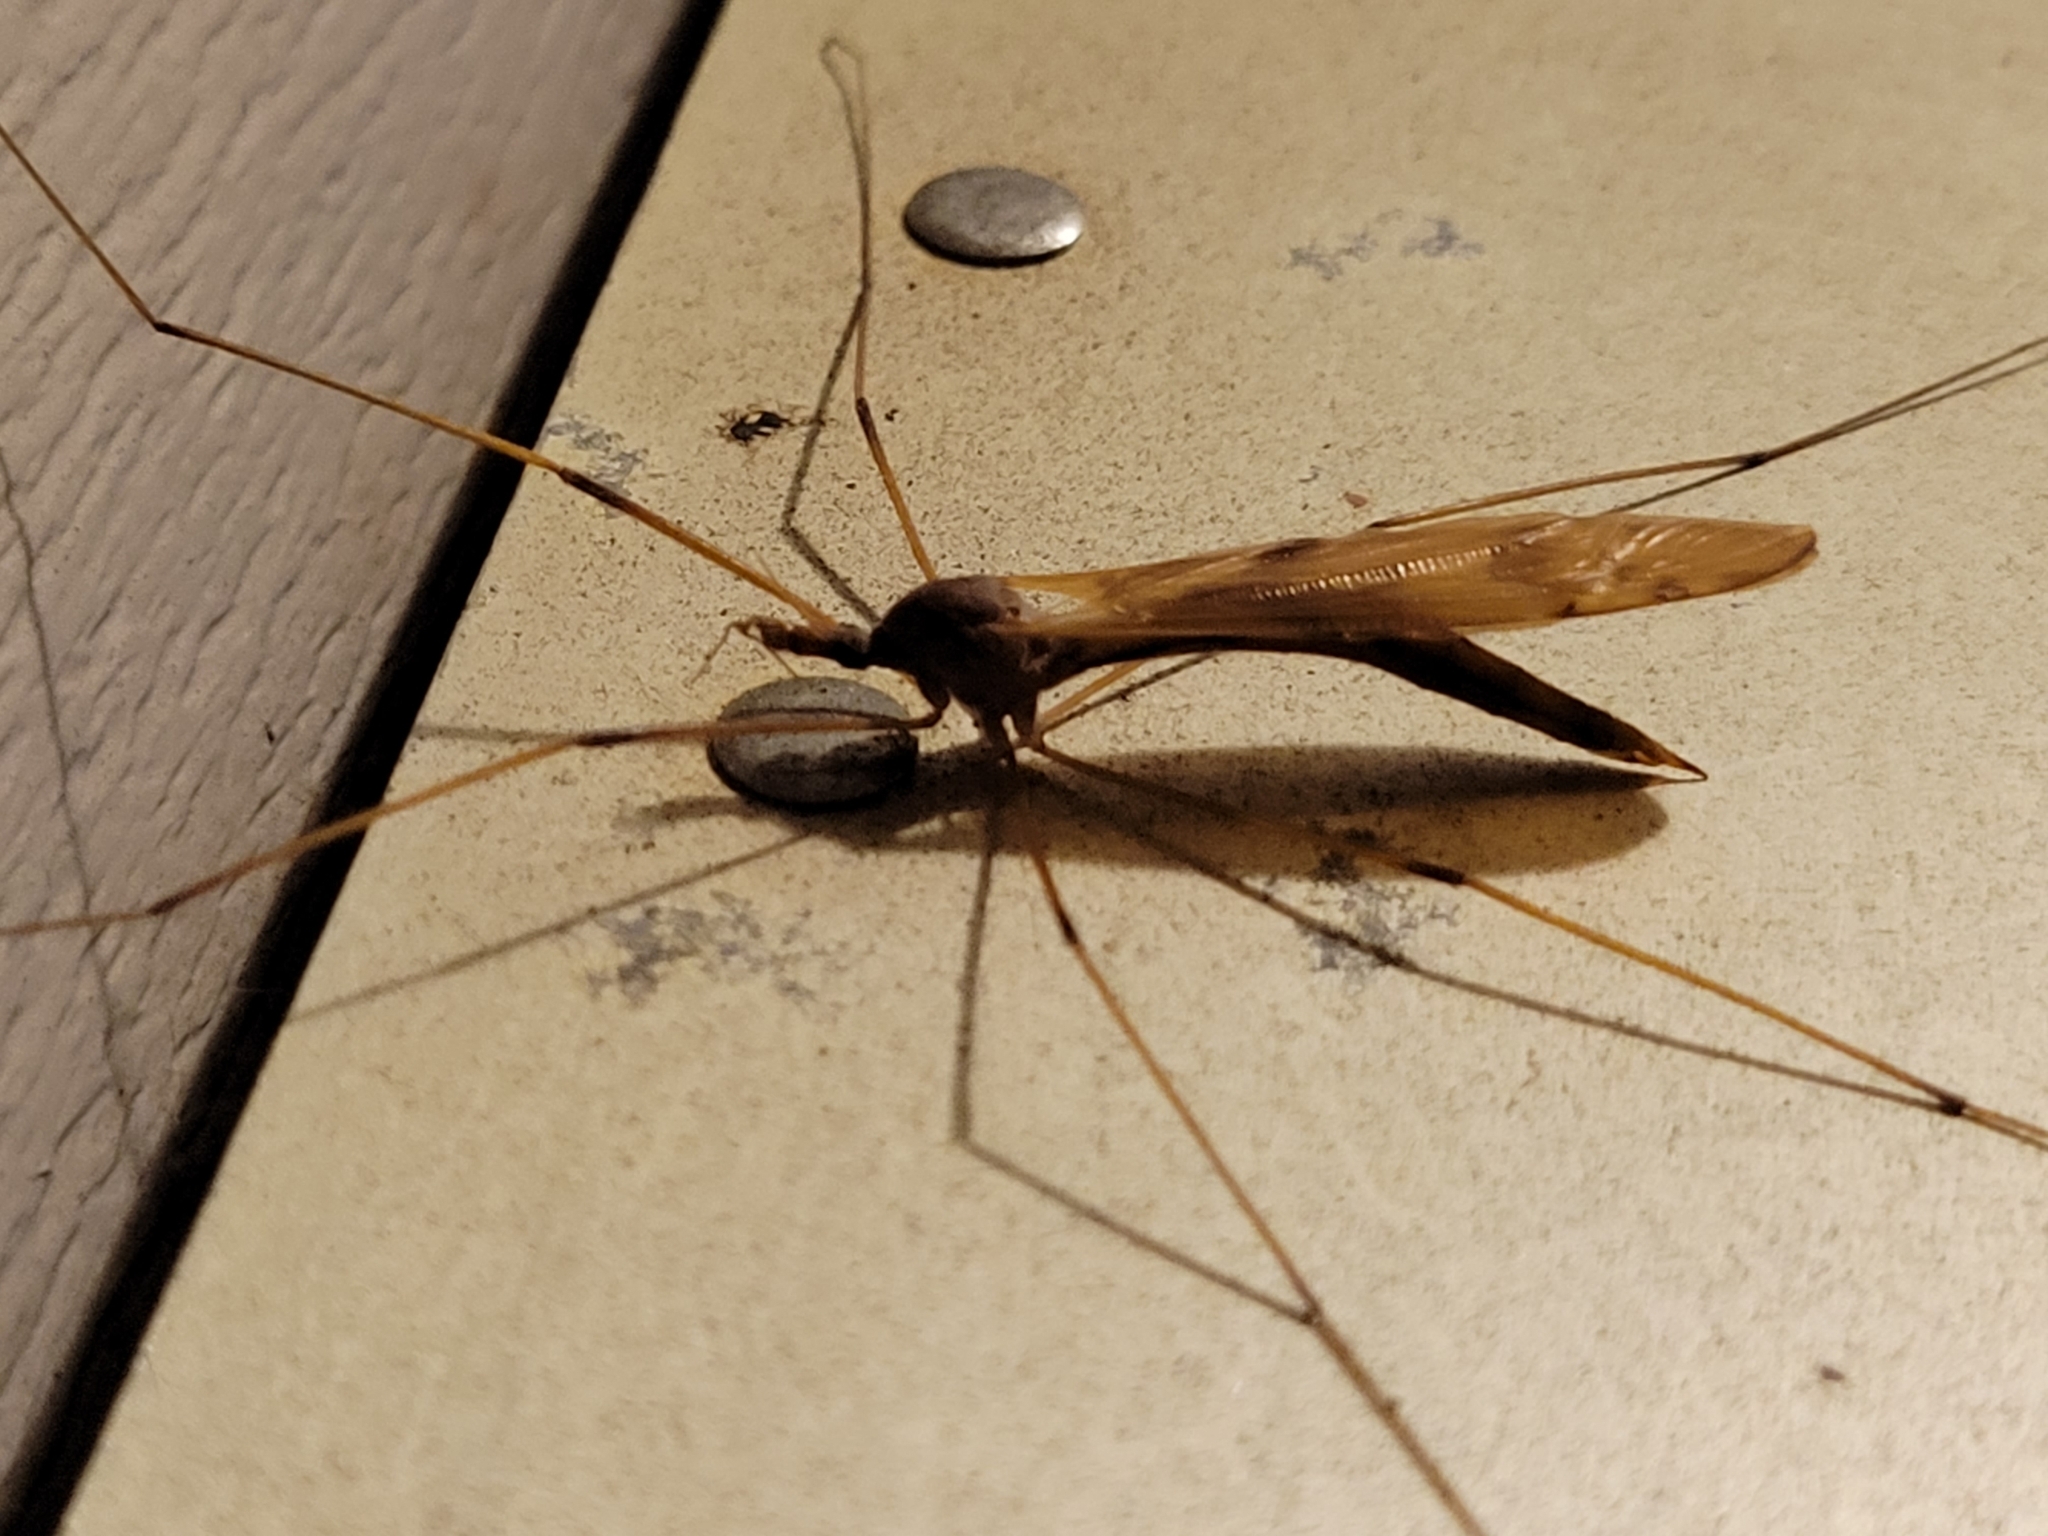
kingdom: Animalia
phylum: Arthropoda
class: Insecta
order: Diptera
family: Tipulidae
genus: Tipula
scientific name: Tipula
